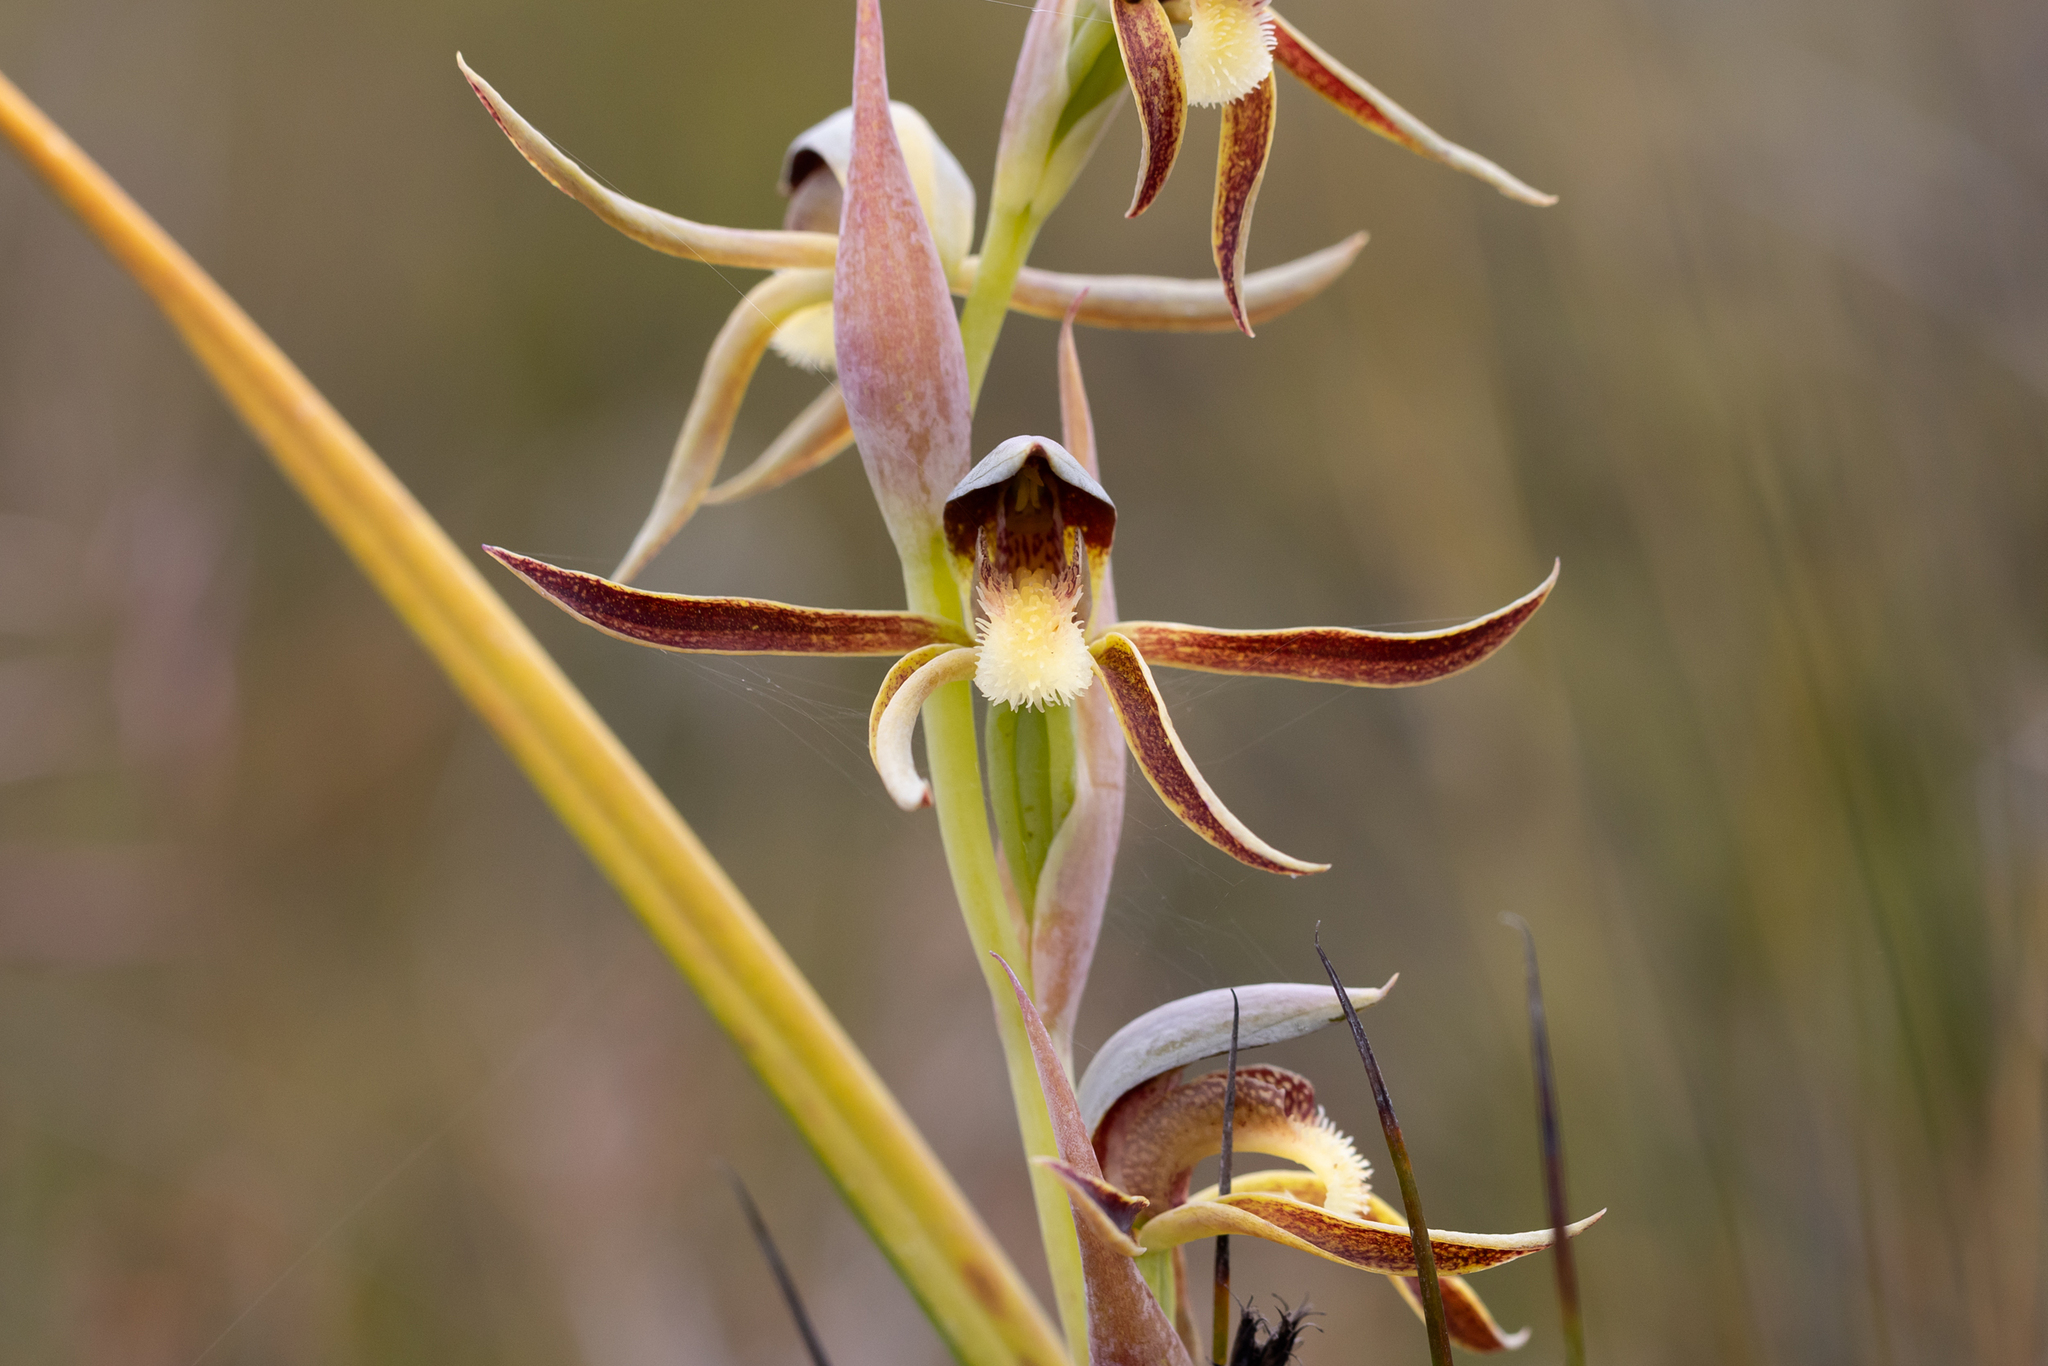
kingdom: Plantae
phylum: Tracheophyta
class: Liliopsida
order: Asparagales
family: Orchidaceae
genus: Lyperanthus
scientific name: Lyperanthus serratus
